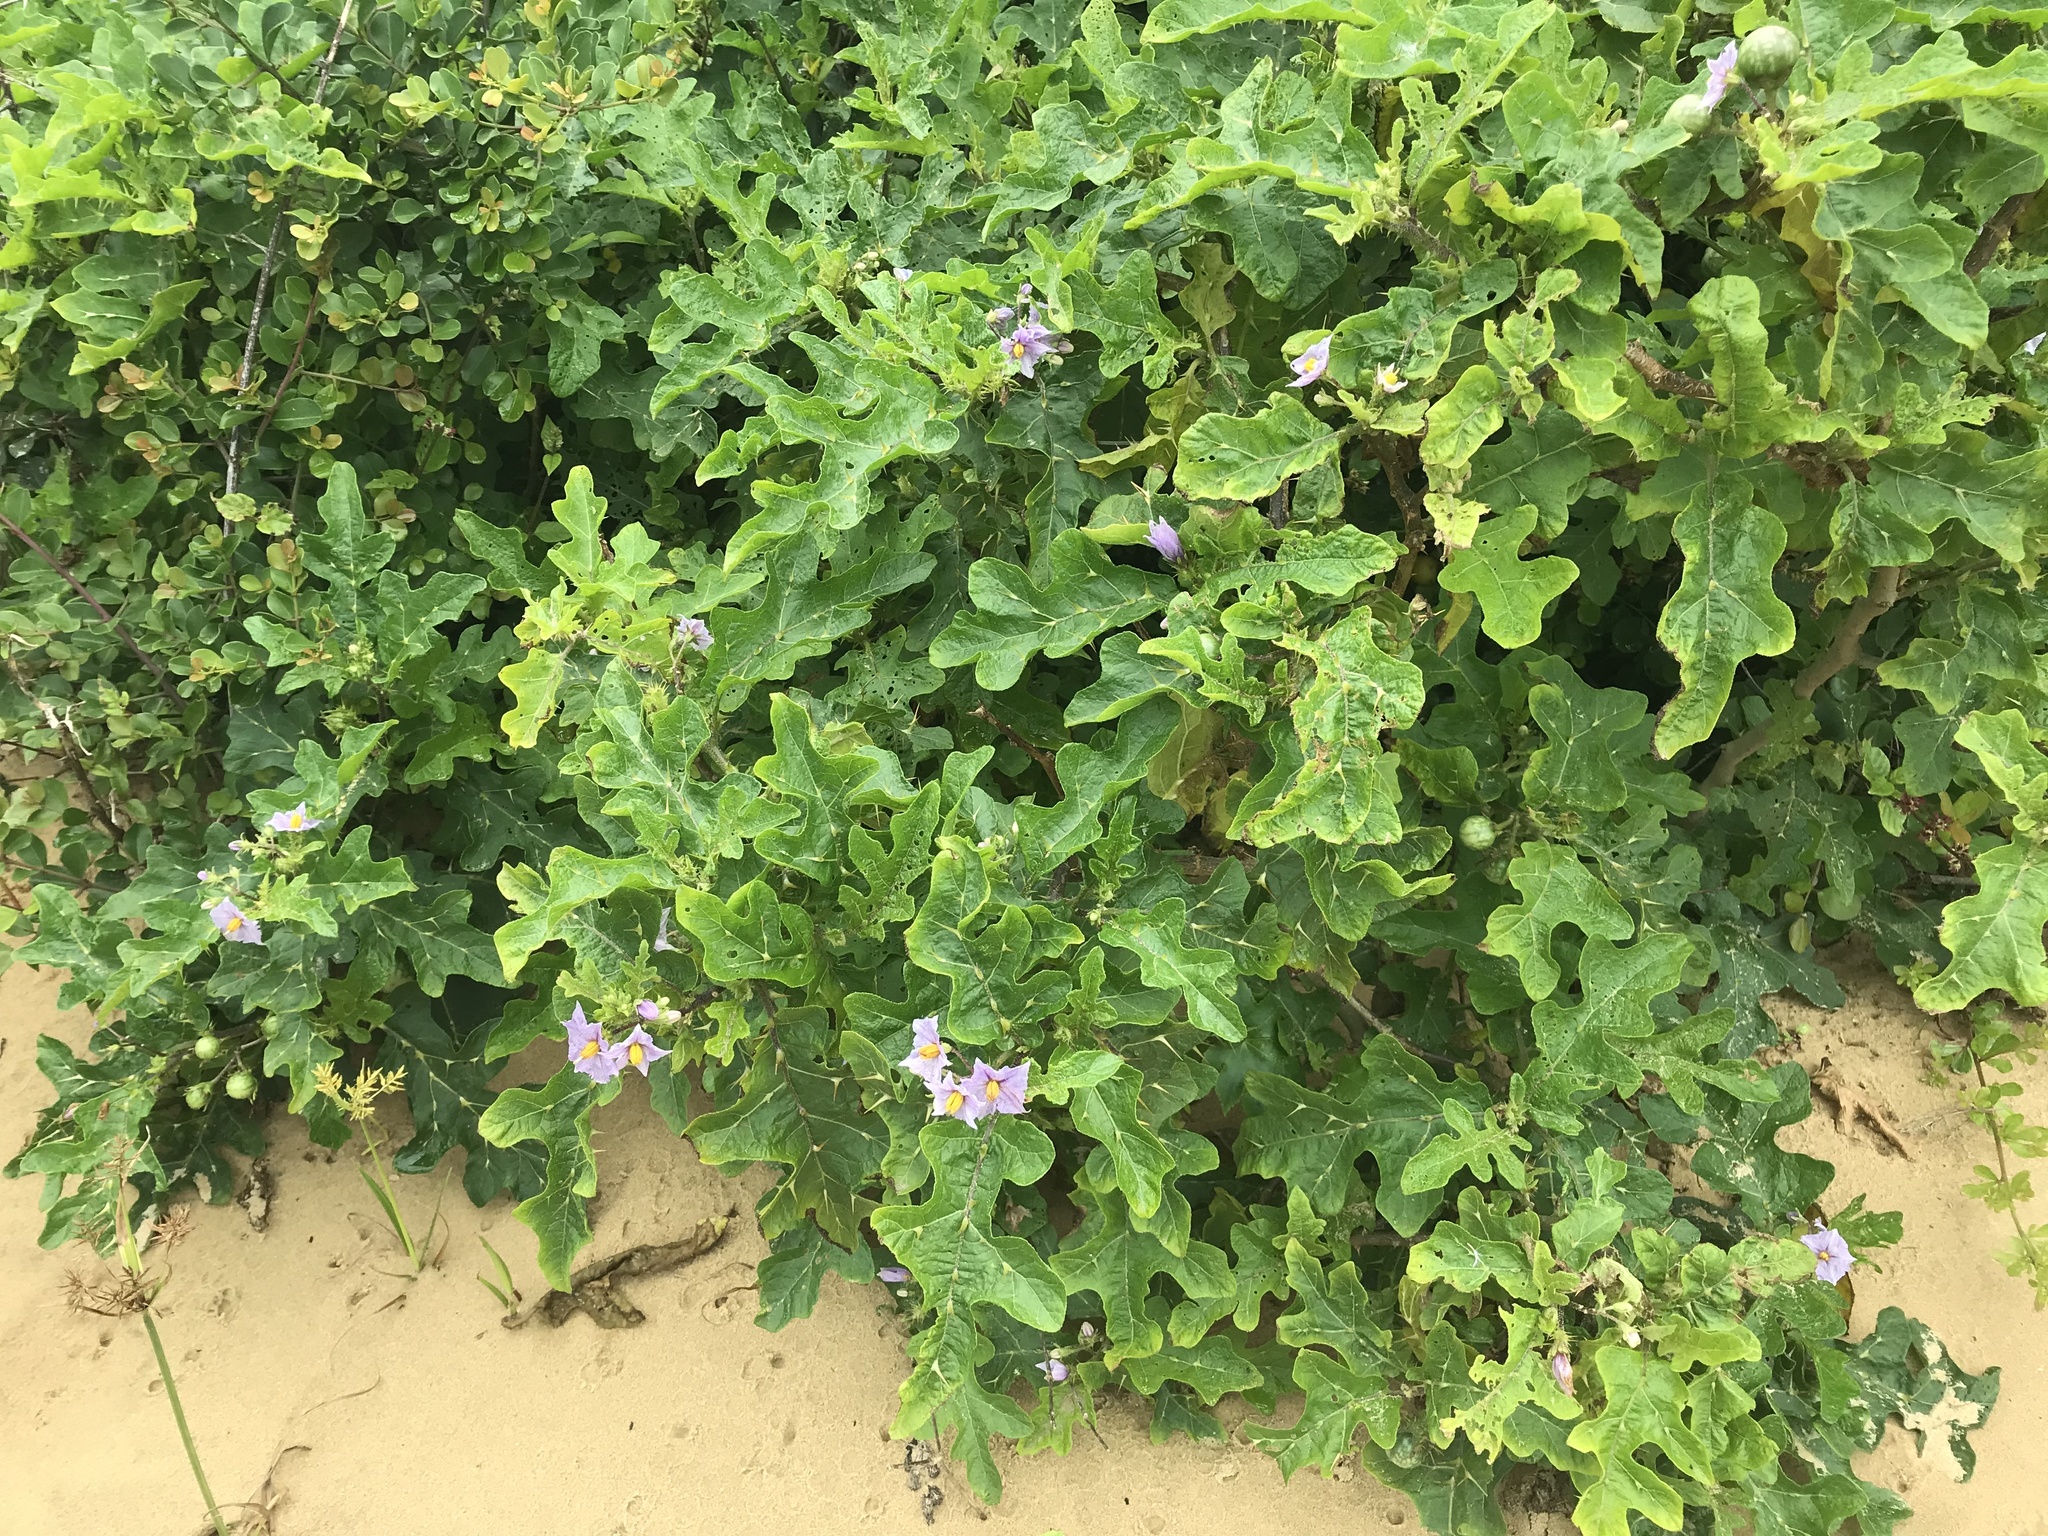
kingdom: Plantae
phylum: Tracheophyta
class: Magnoliopsida
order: Solanales
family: Solanaceae
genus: Solanum
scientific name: Solanum linnaeanum
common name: Nightshade
